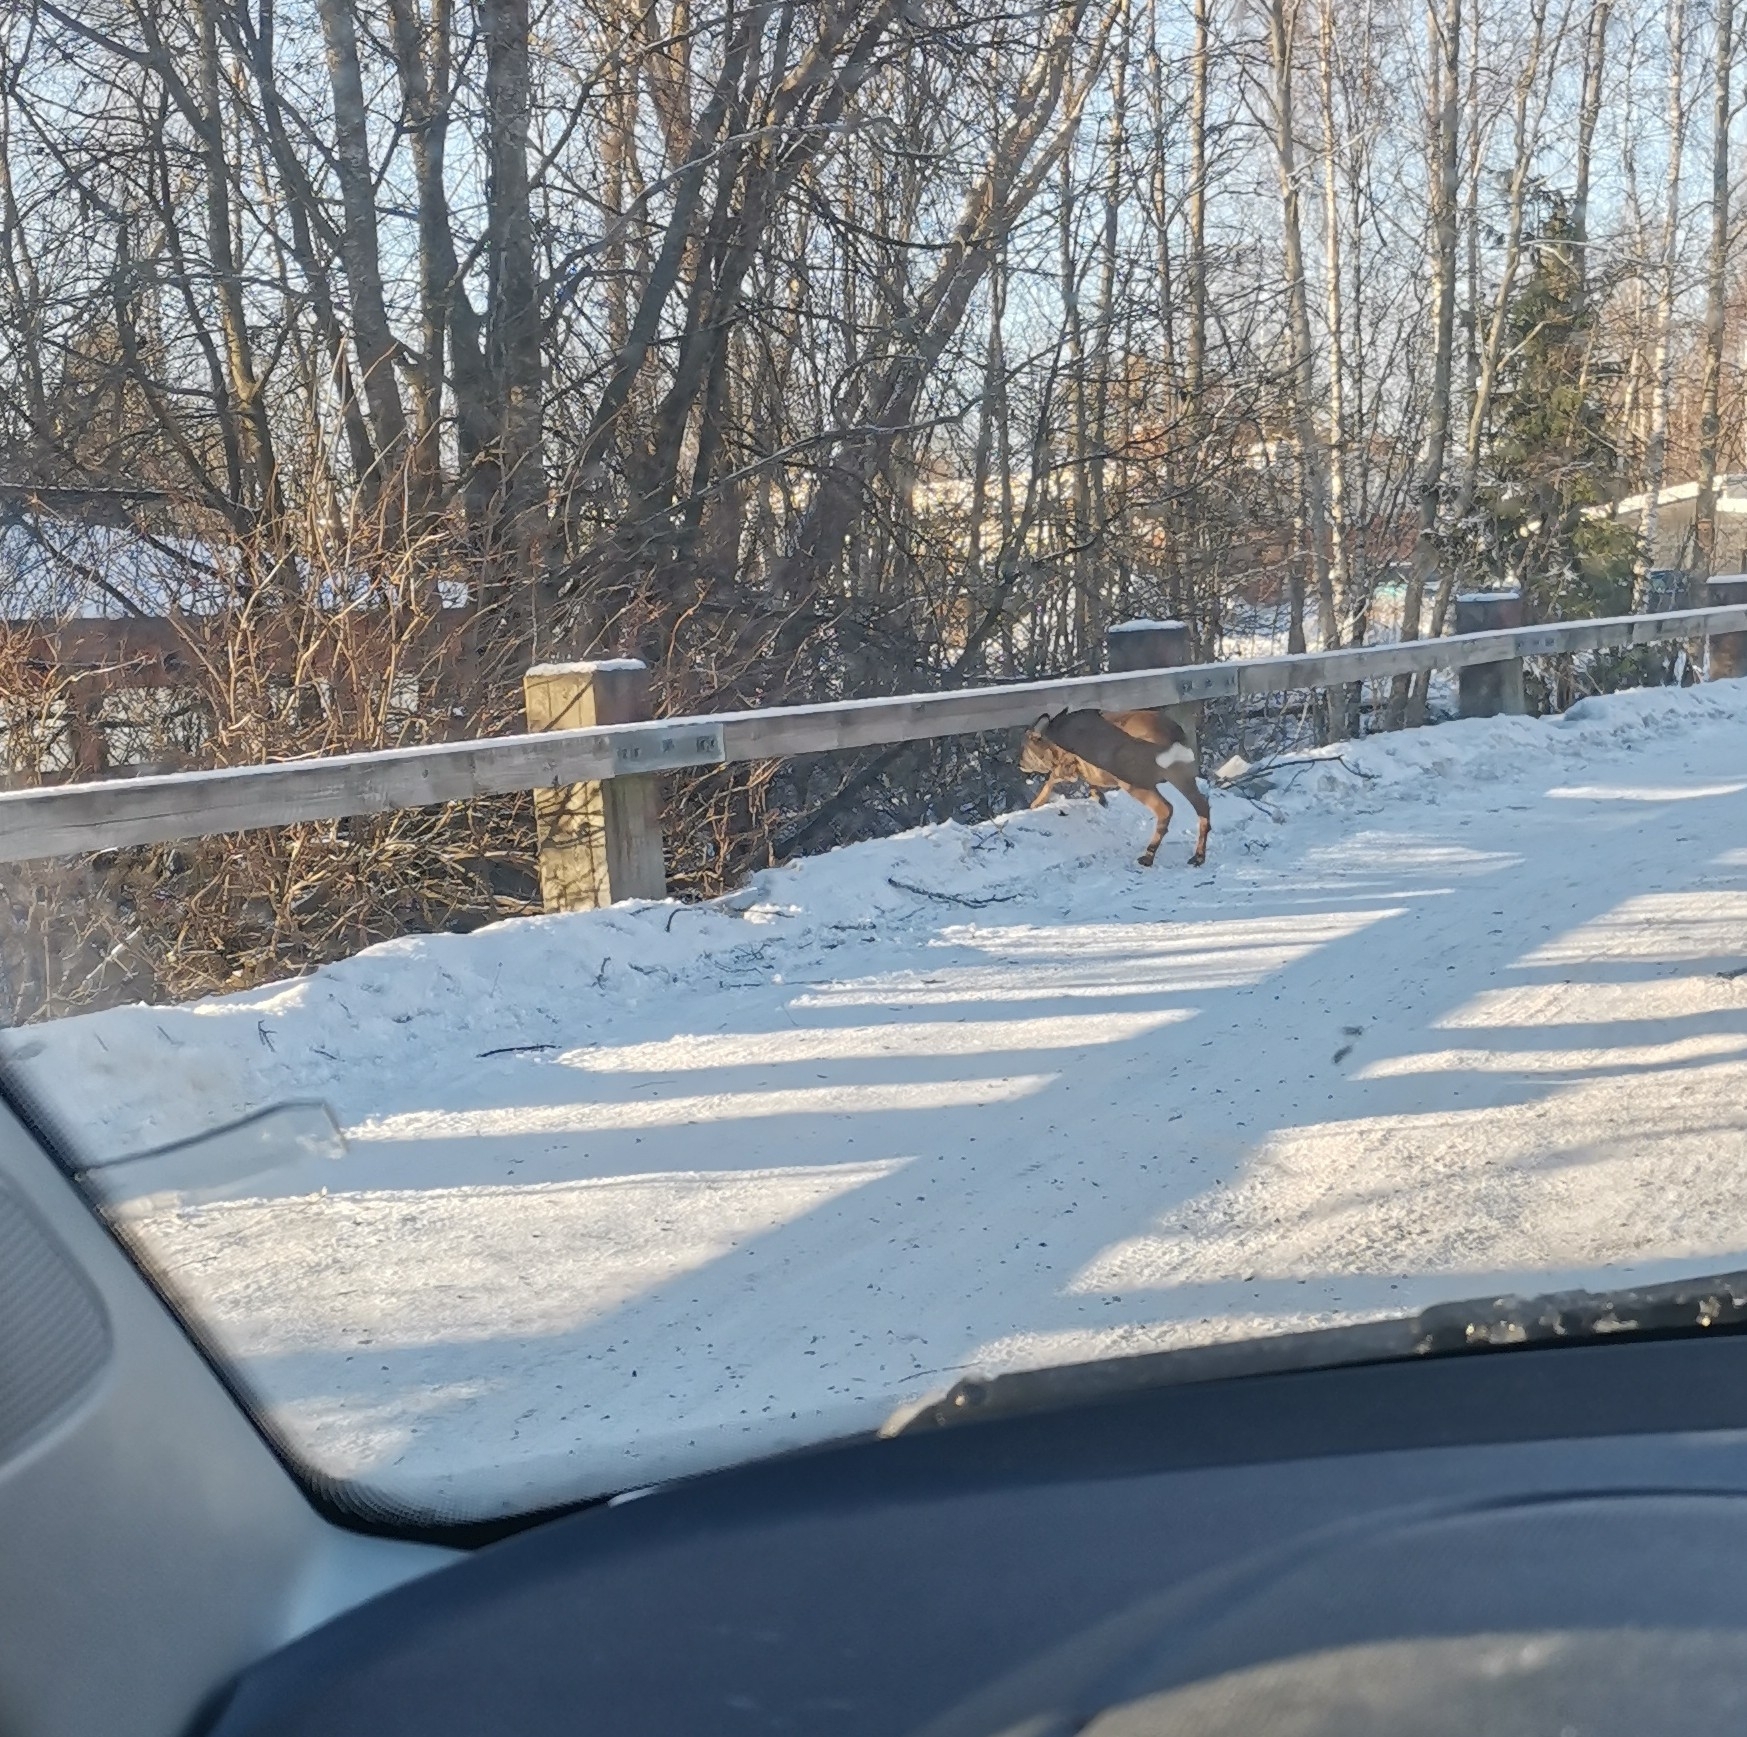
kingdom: Animalia
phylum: Chordata
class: Mammalia
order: Artiodactyla
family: Cervidae
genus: Capreolus
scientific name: Capreolus capreolus
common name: Western roe deer
